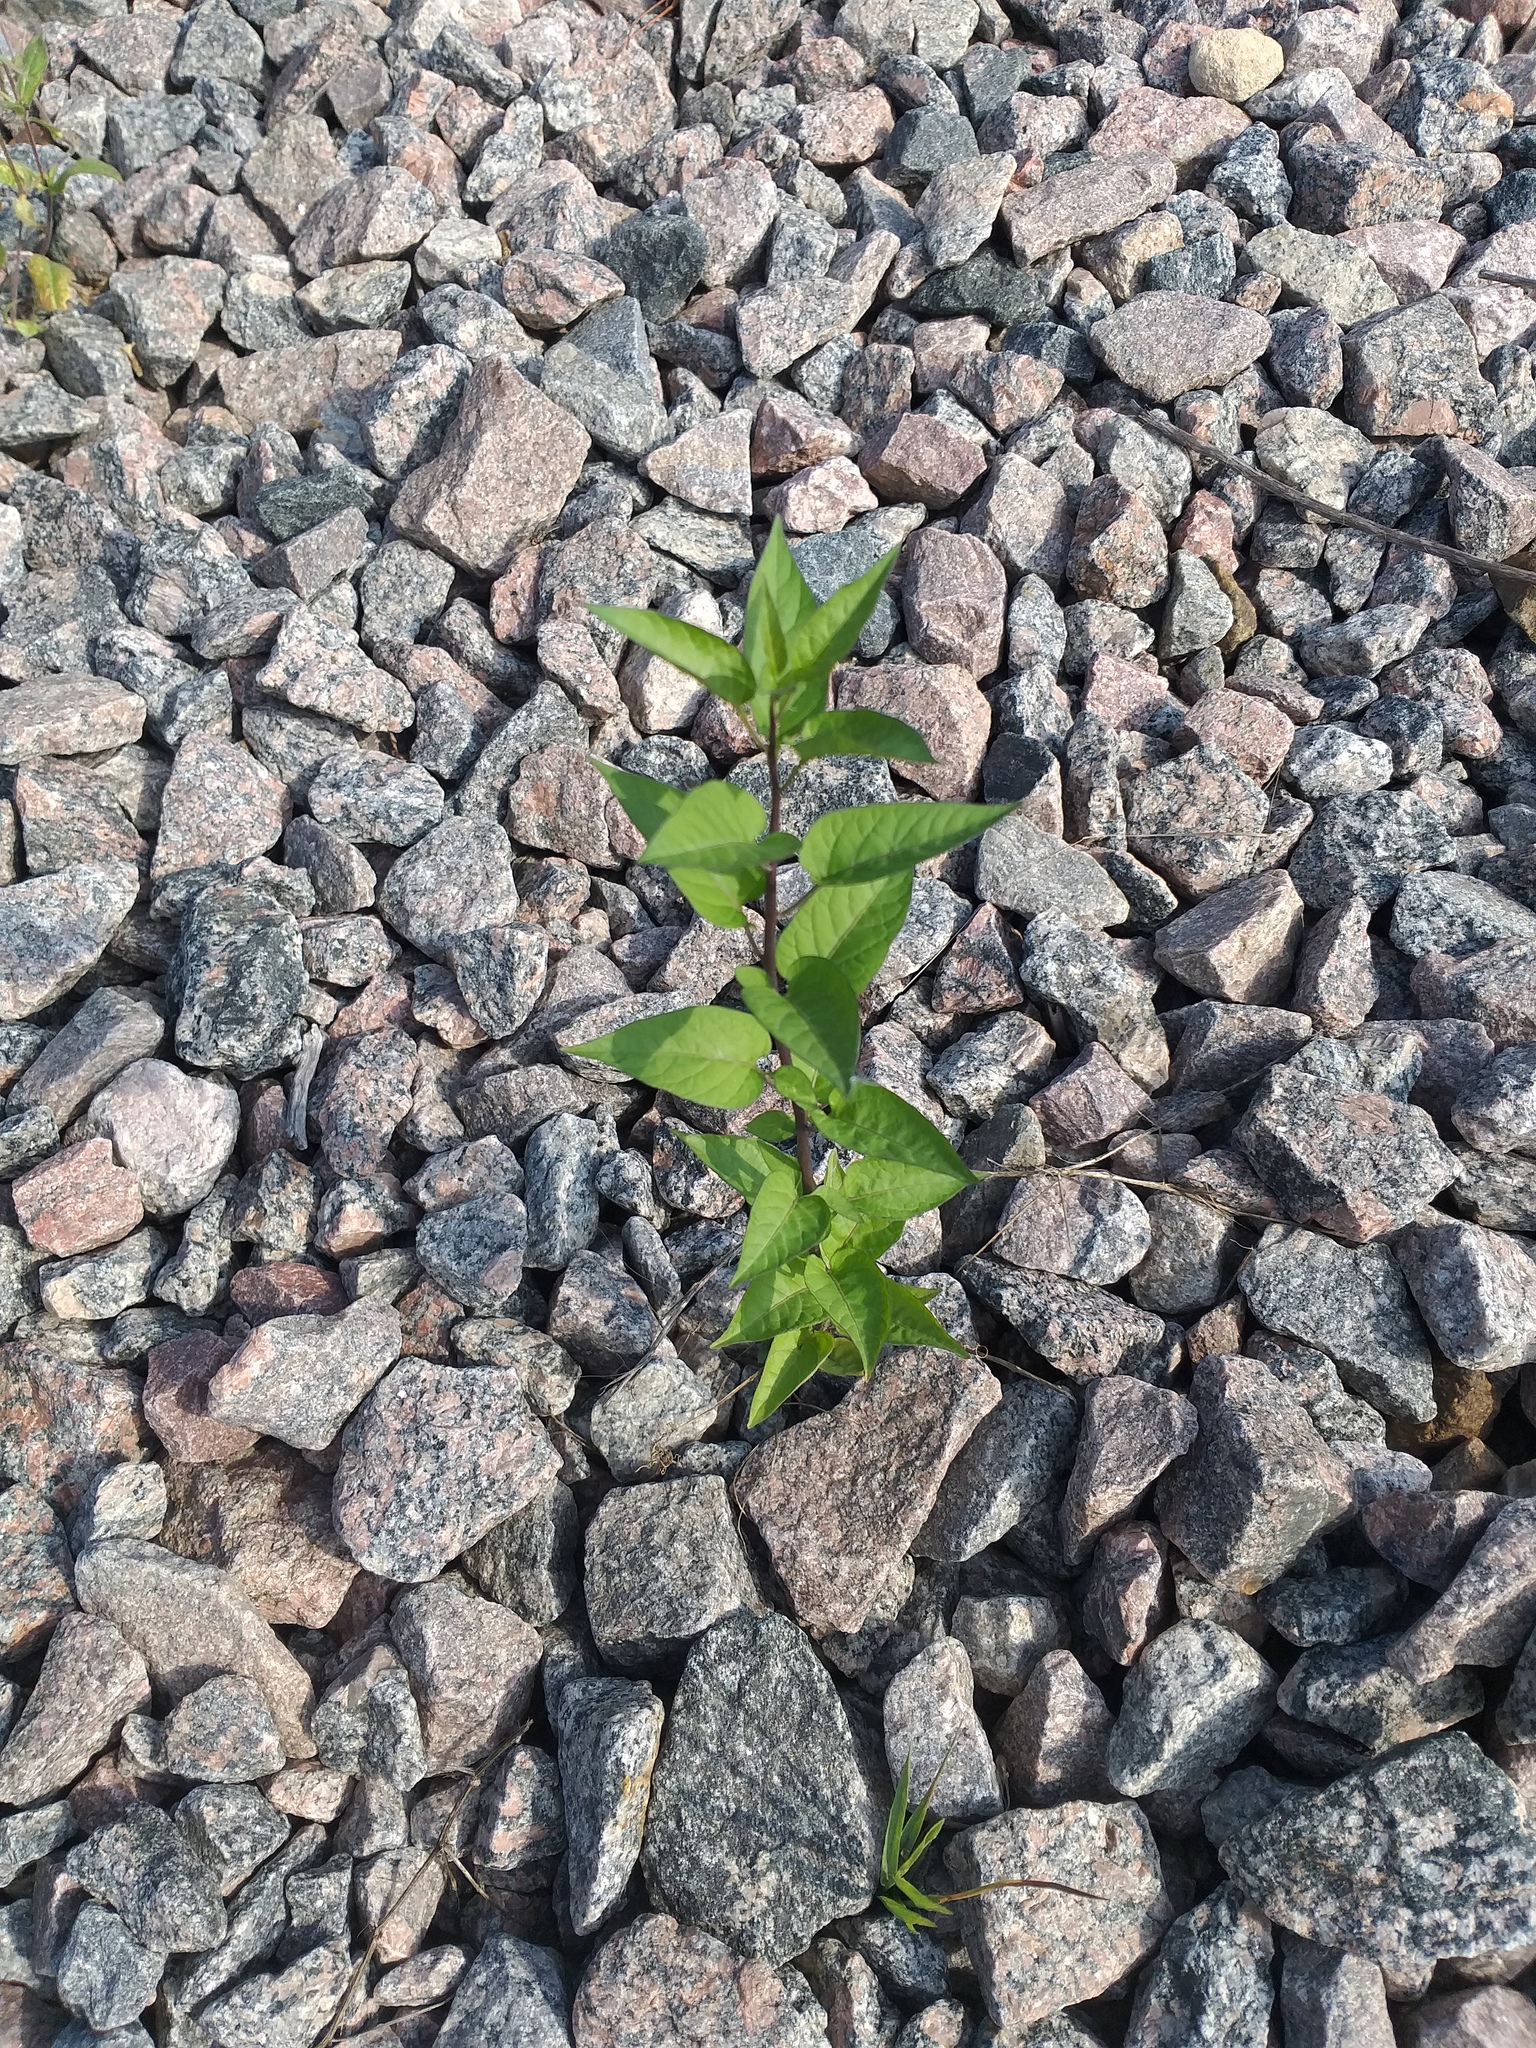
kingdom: Plantae
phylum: Tracheophyta
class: Magnoliopsida
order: Solanales
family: Solanaceae
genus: Solanum
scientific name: Solanum dulcamara
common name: Climbing nightshade
